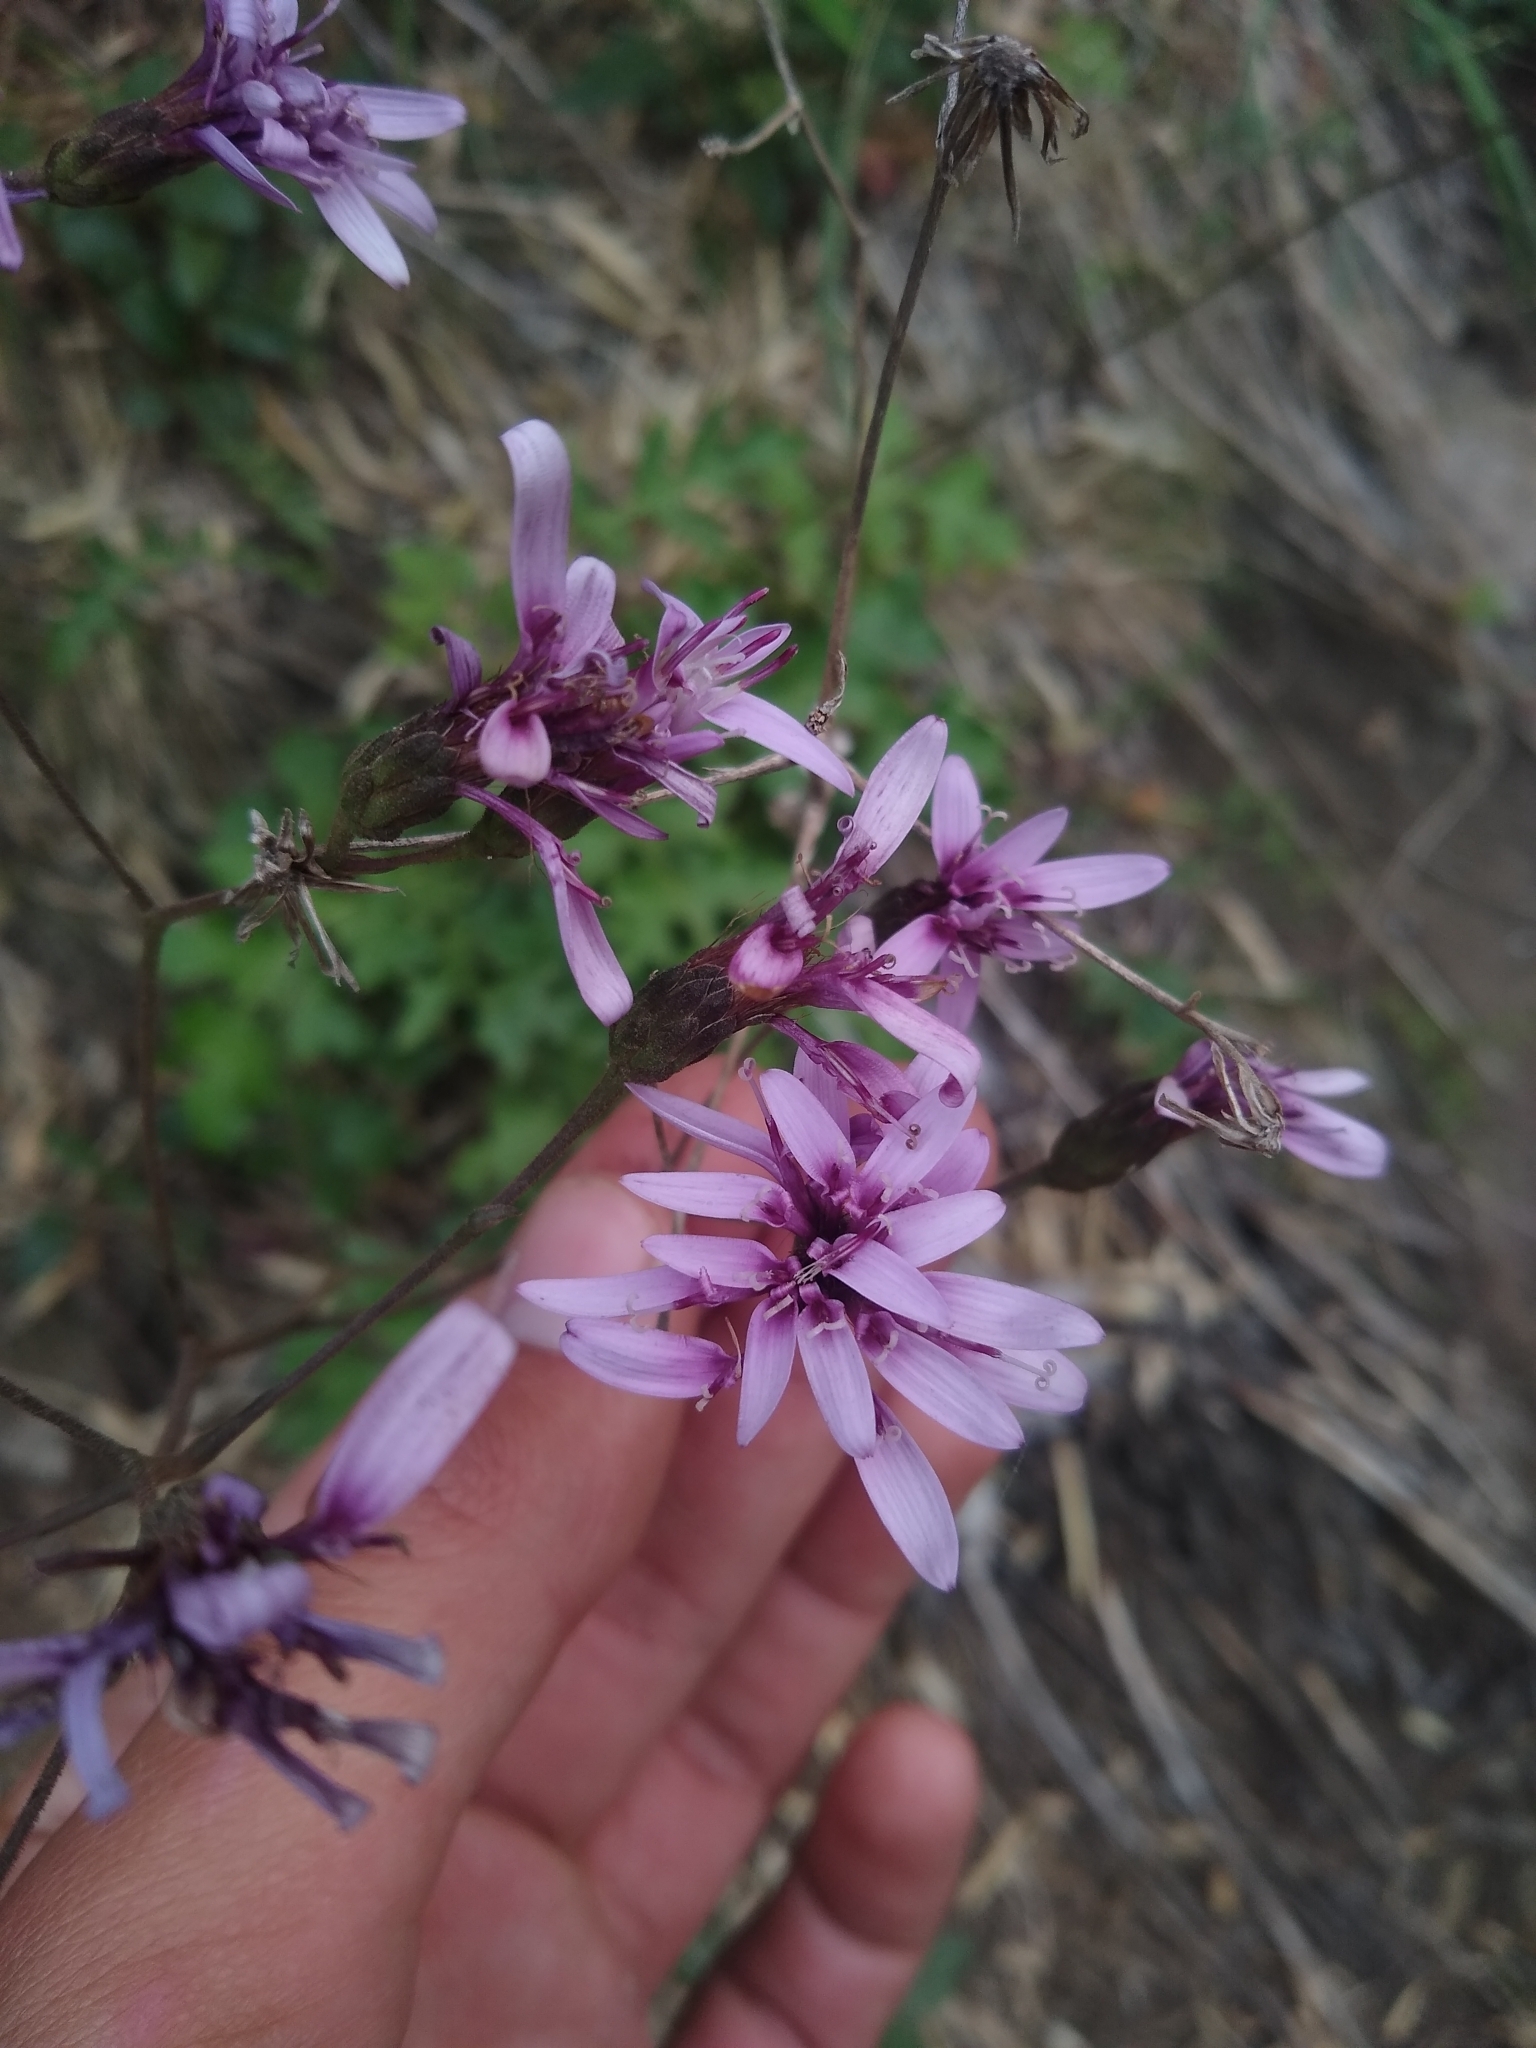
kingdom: Plantae
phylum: Tracheophyta
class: Magnoliopsida
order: Asterales
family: Asteraceae
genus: Perezia
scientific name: Perezia prenanthoides
